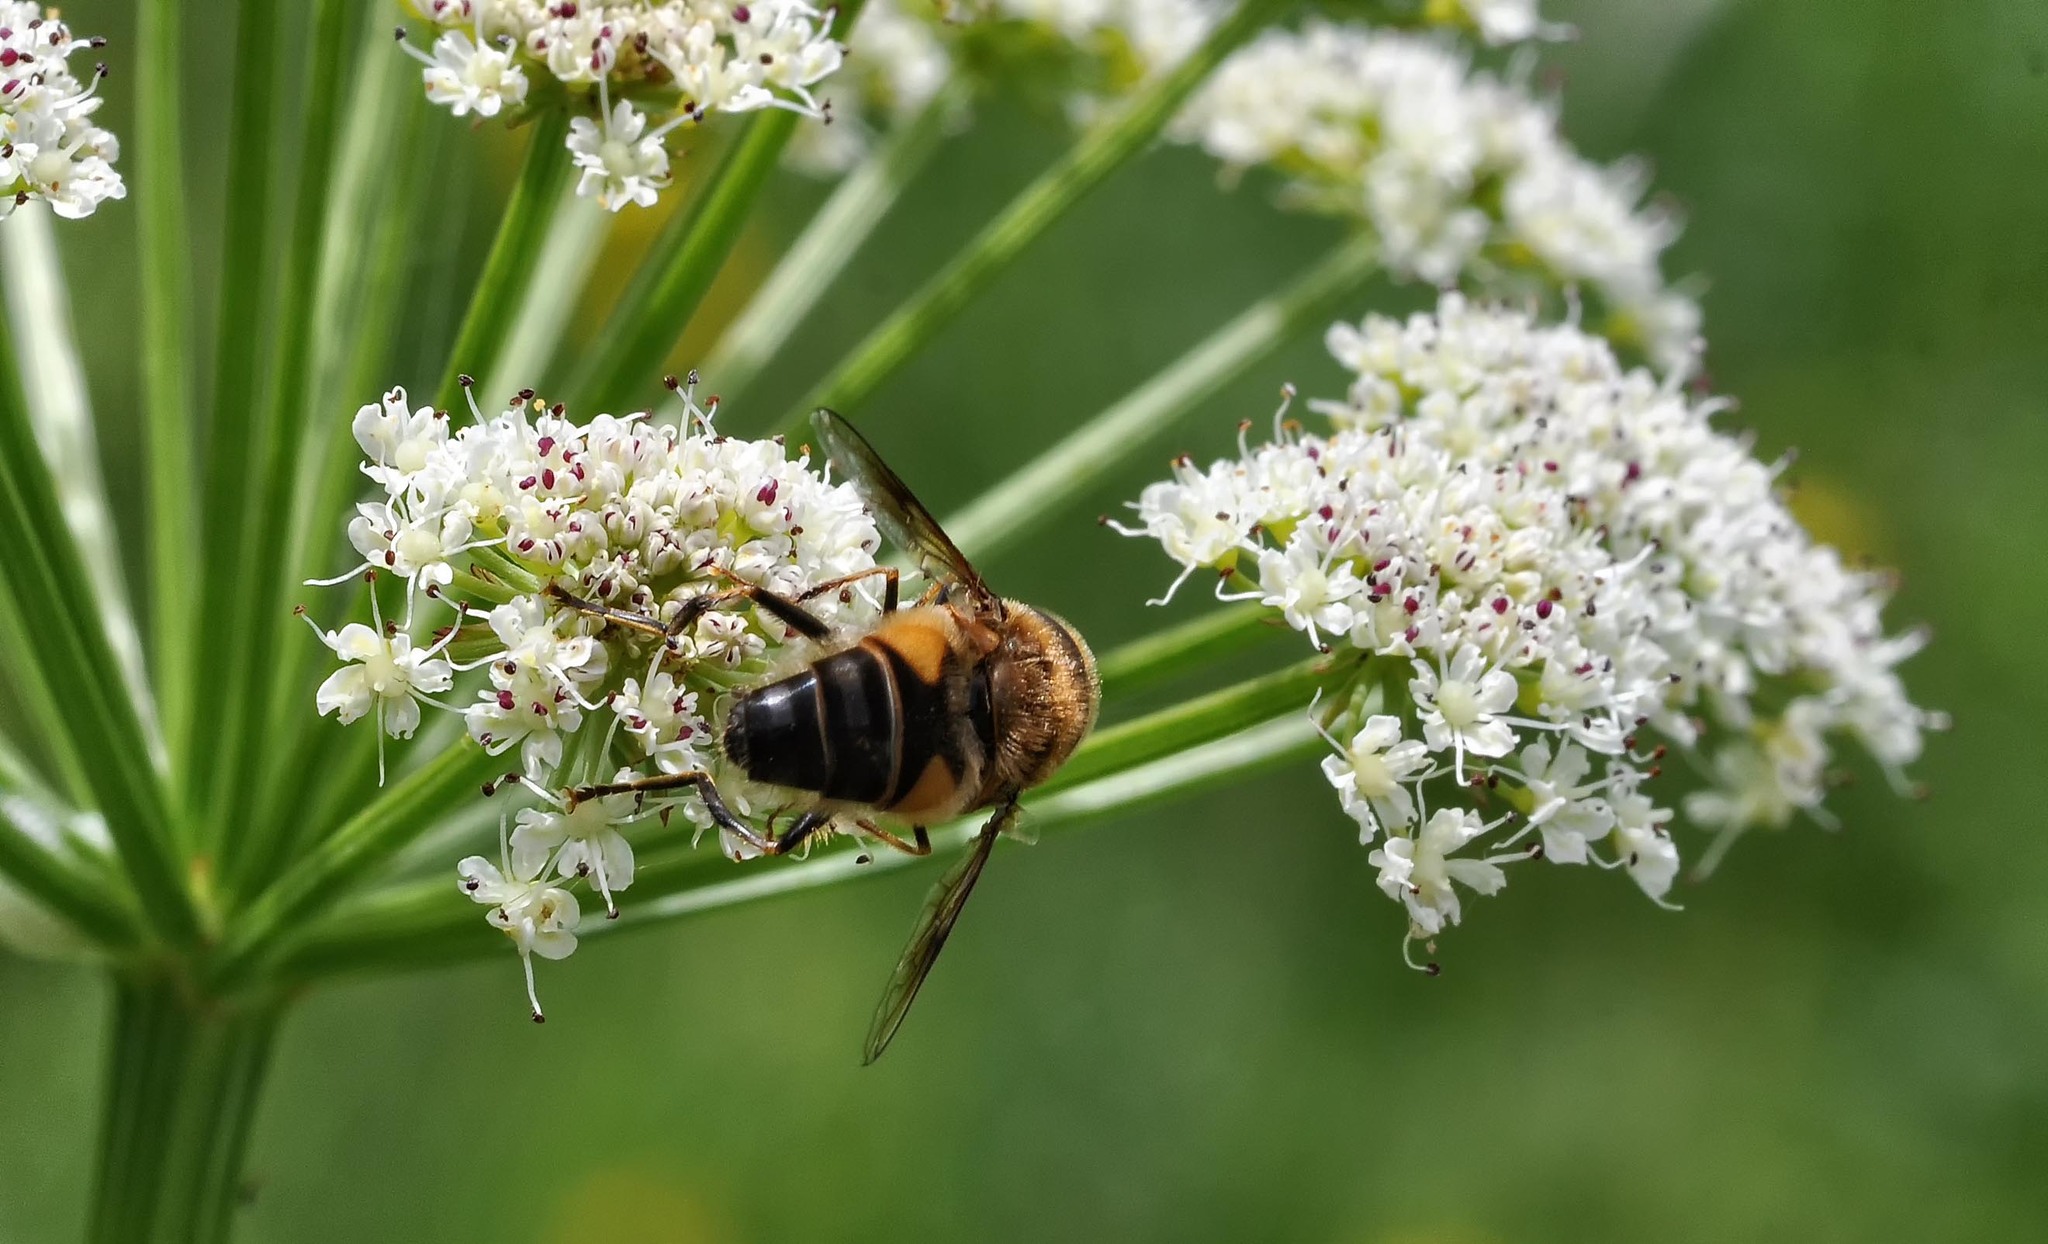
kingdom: Animalia
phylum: Arthropoda
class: Insecta
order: Diptera
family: Syrphidae
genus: Eristalis
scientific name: Eristalis pertinax
